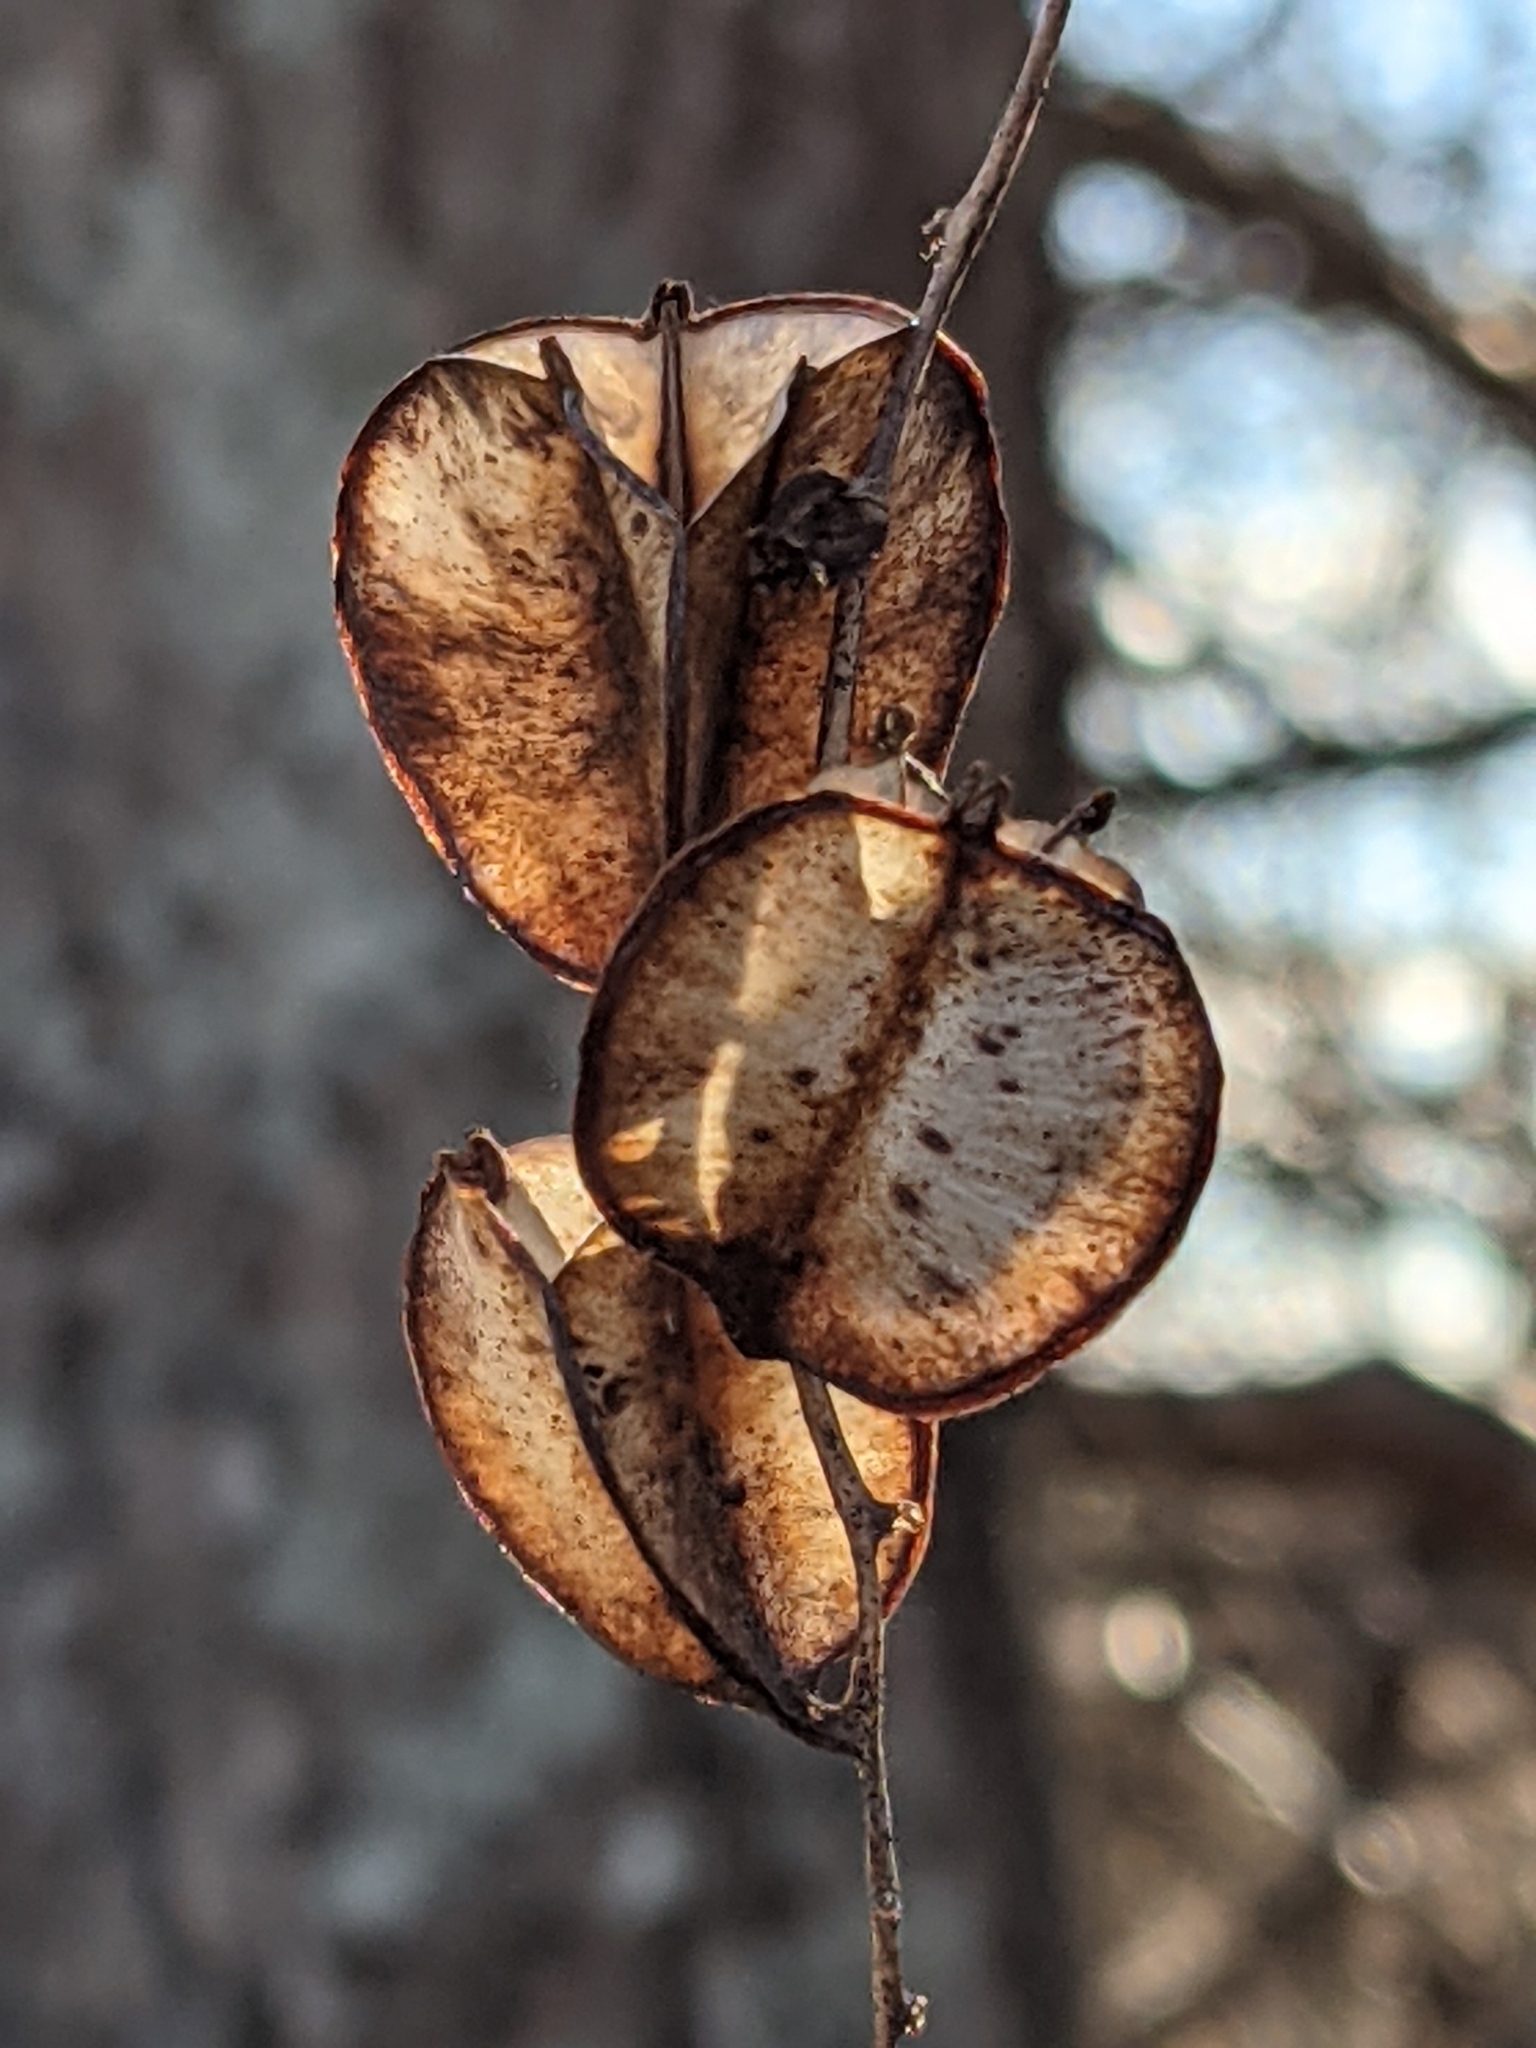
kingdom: Plantae
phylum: Tracheophyta
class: Liliopsida
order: Dioscoreales
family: Dioscoreaceae
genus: Dioscorea
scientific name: Dioscorea villosa
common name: Wild yam
